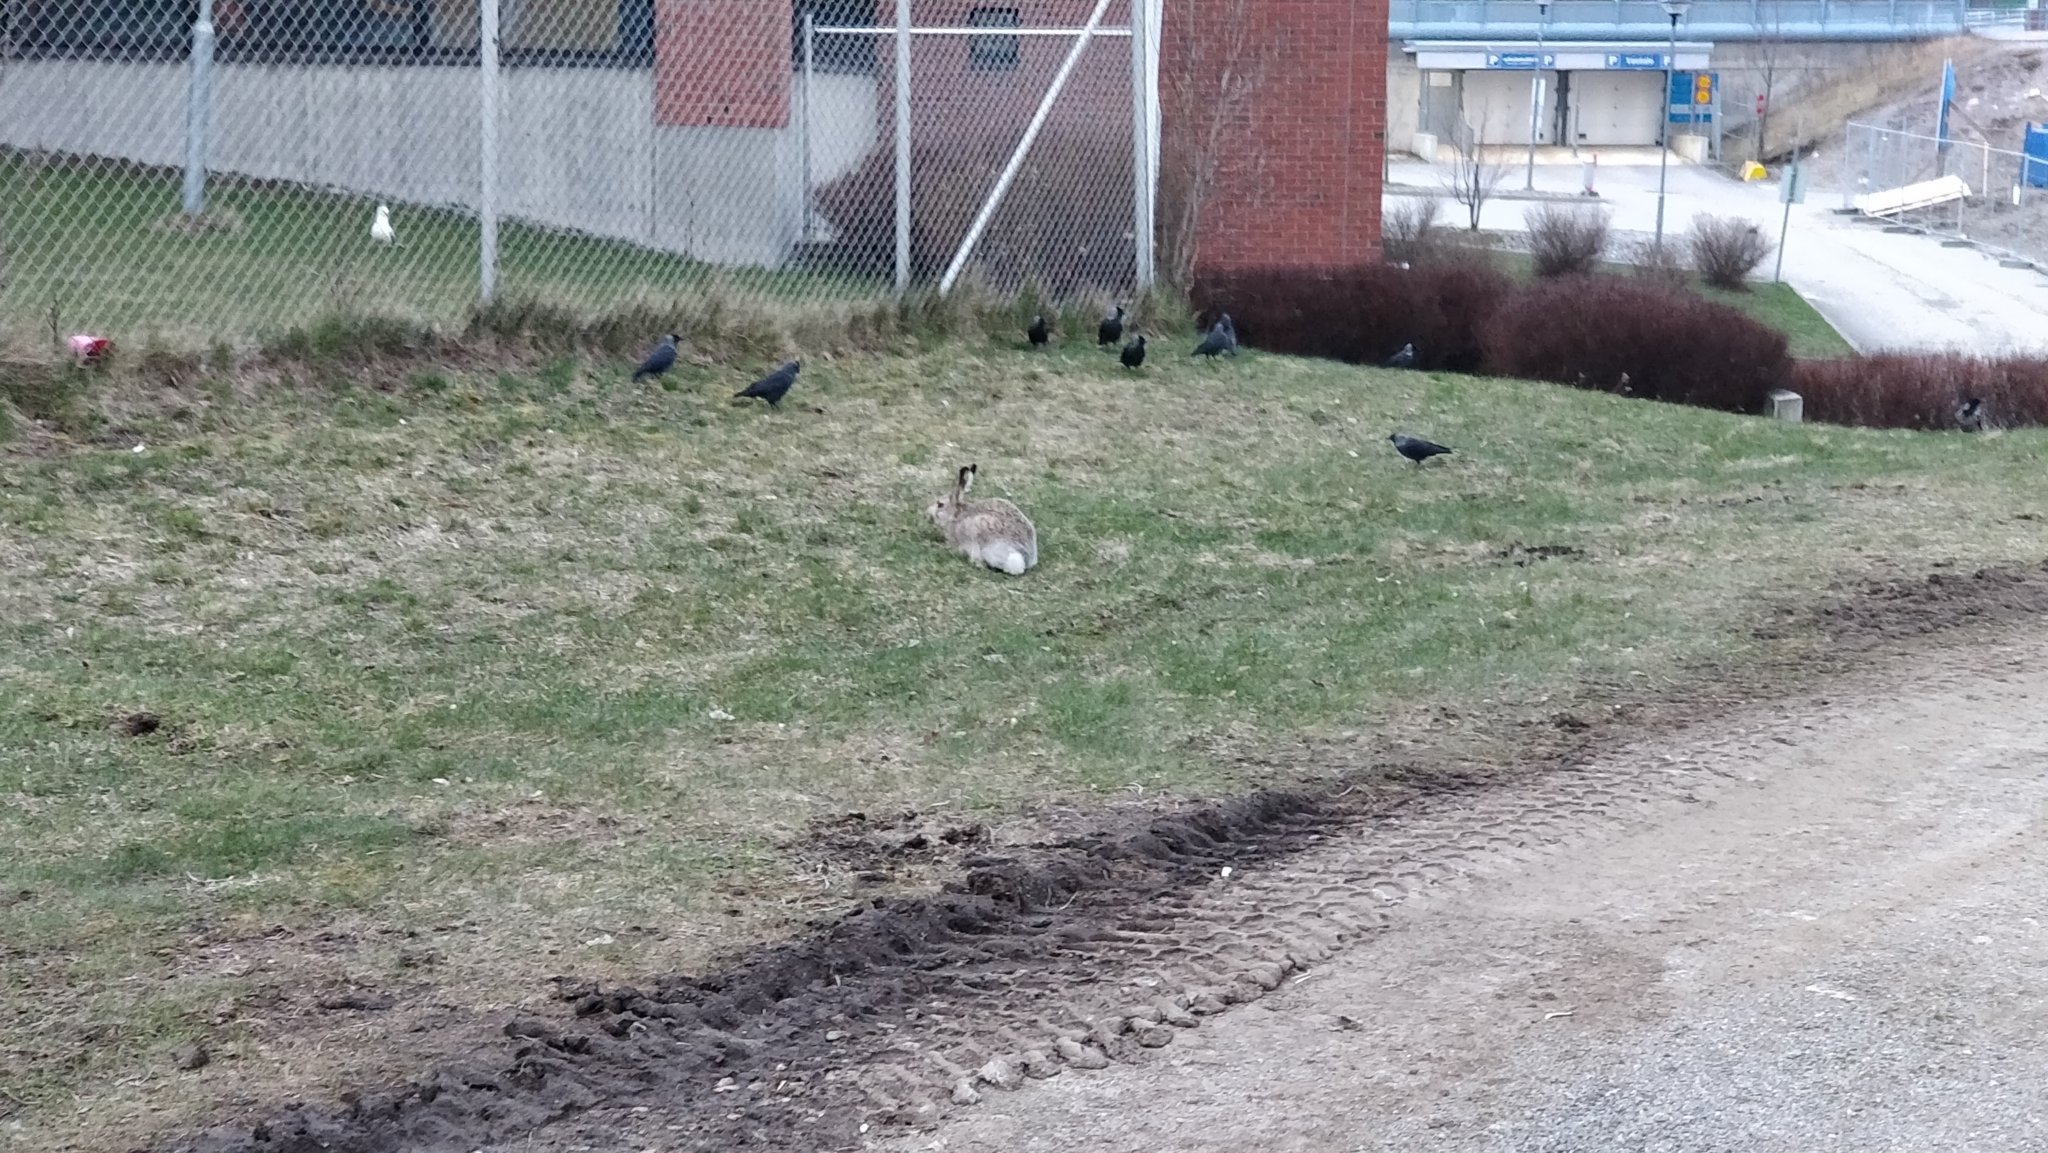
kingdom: Animalia
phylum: Chordata
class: Mammalia
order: Lagomorpha
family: Leporidae
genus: Lepus
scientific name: Lepus europaeus
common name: European hare
